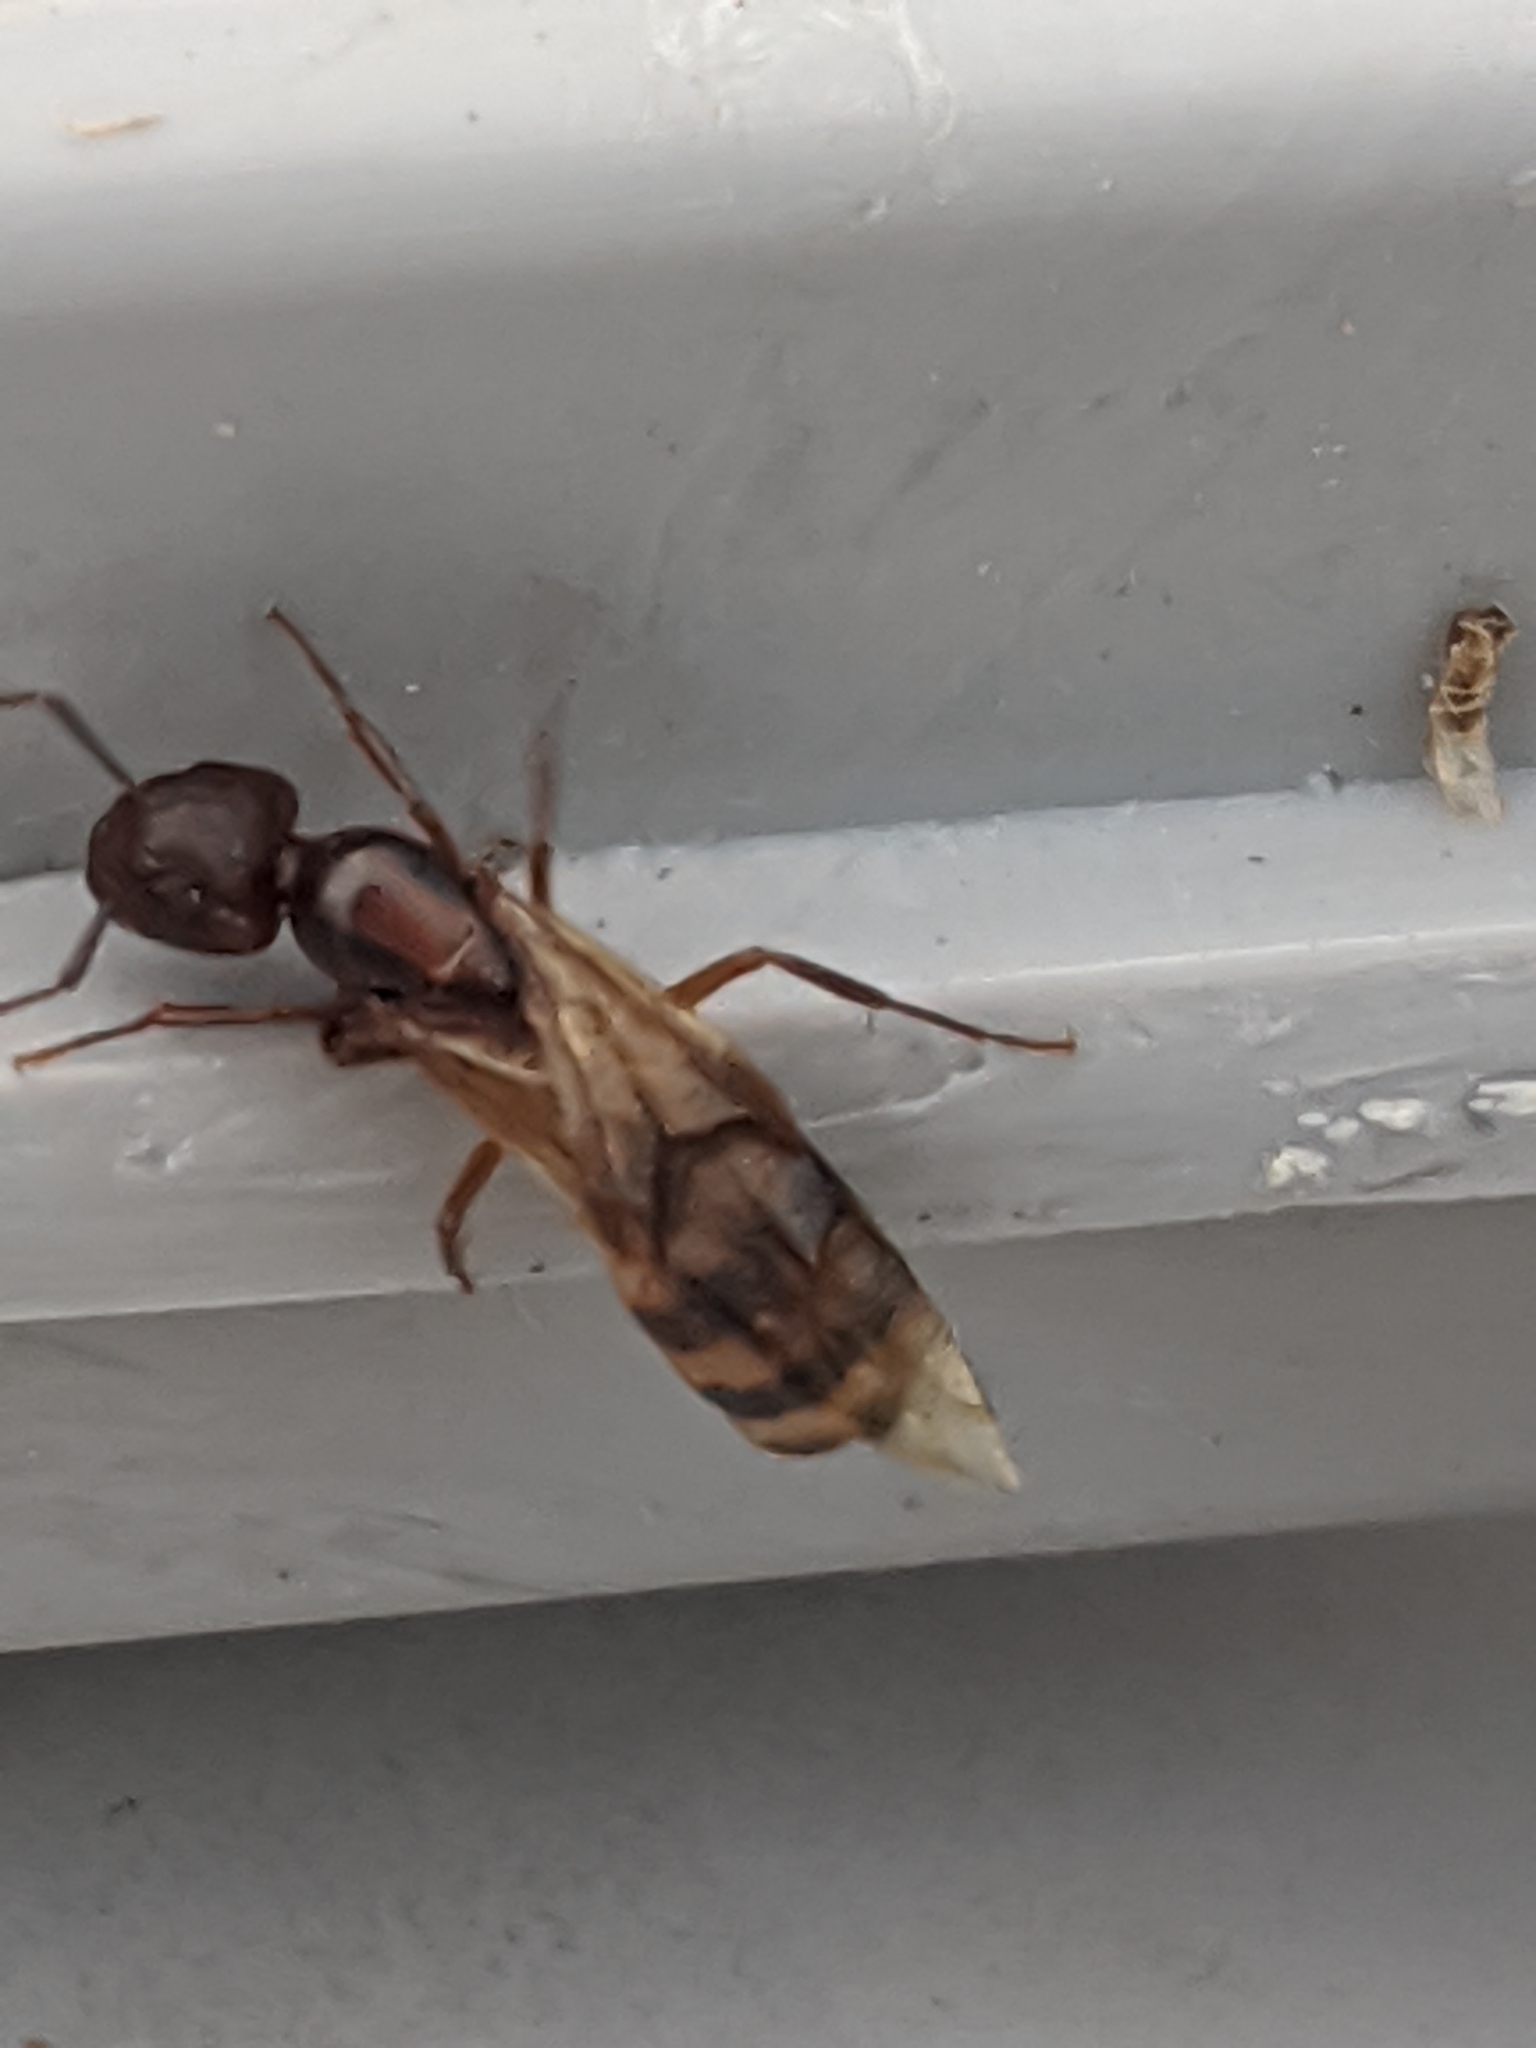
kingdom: Animalia
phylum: Arthropoda
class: Insecta
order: Hymenoptera
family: Formicidae
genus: Camponotus
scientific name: Camponotus subbarbatus
